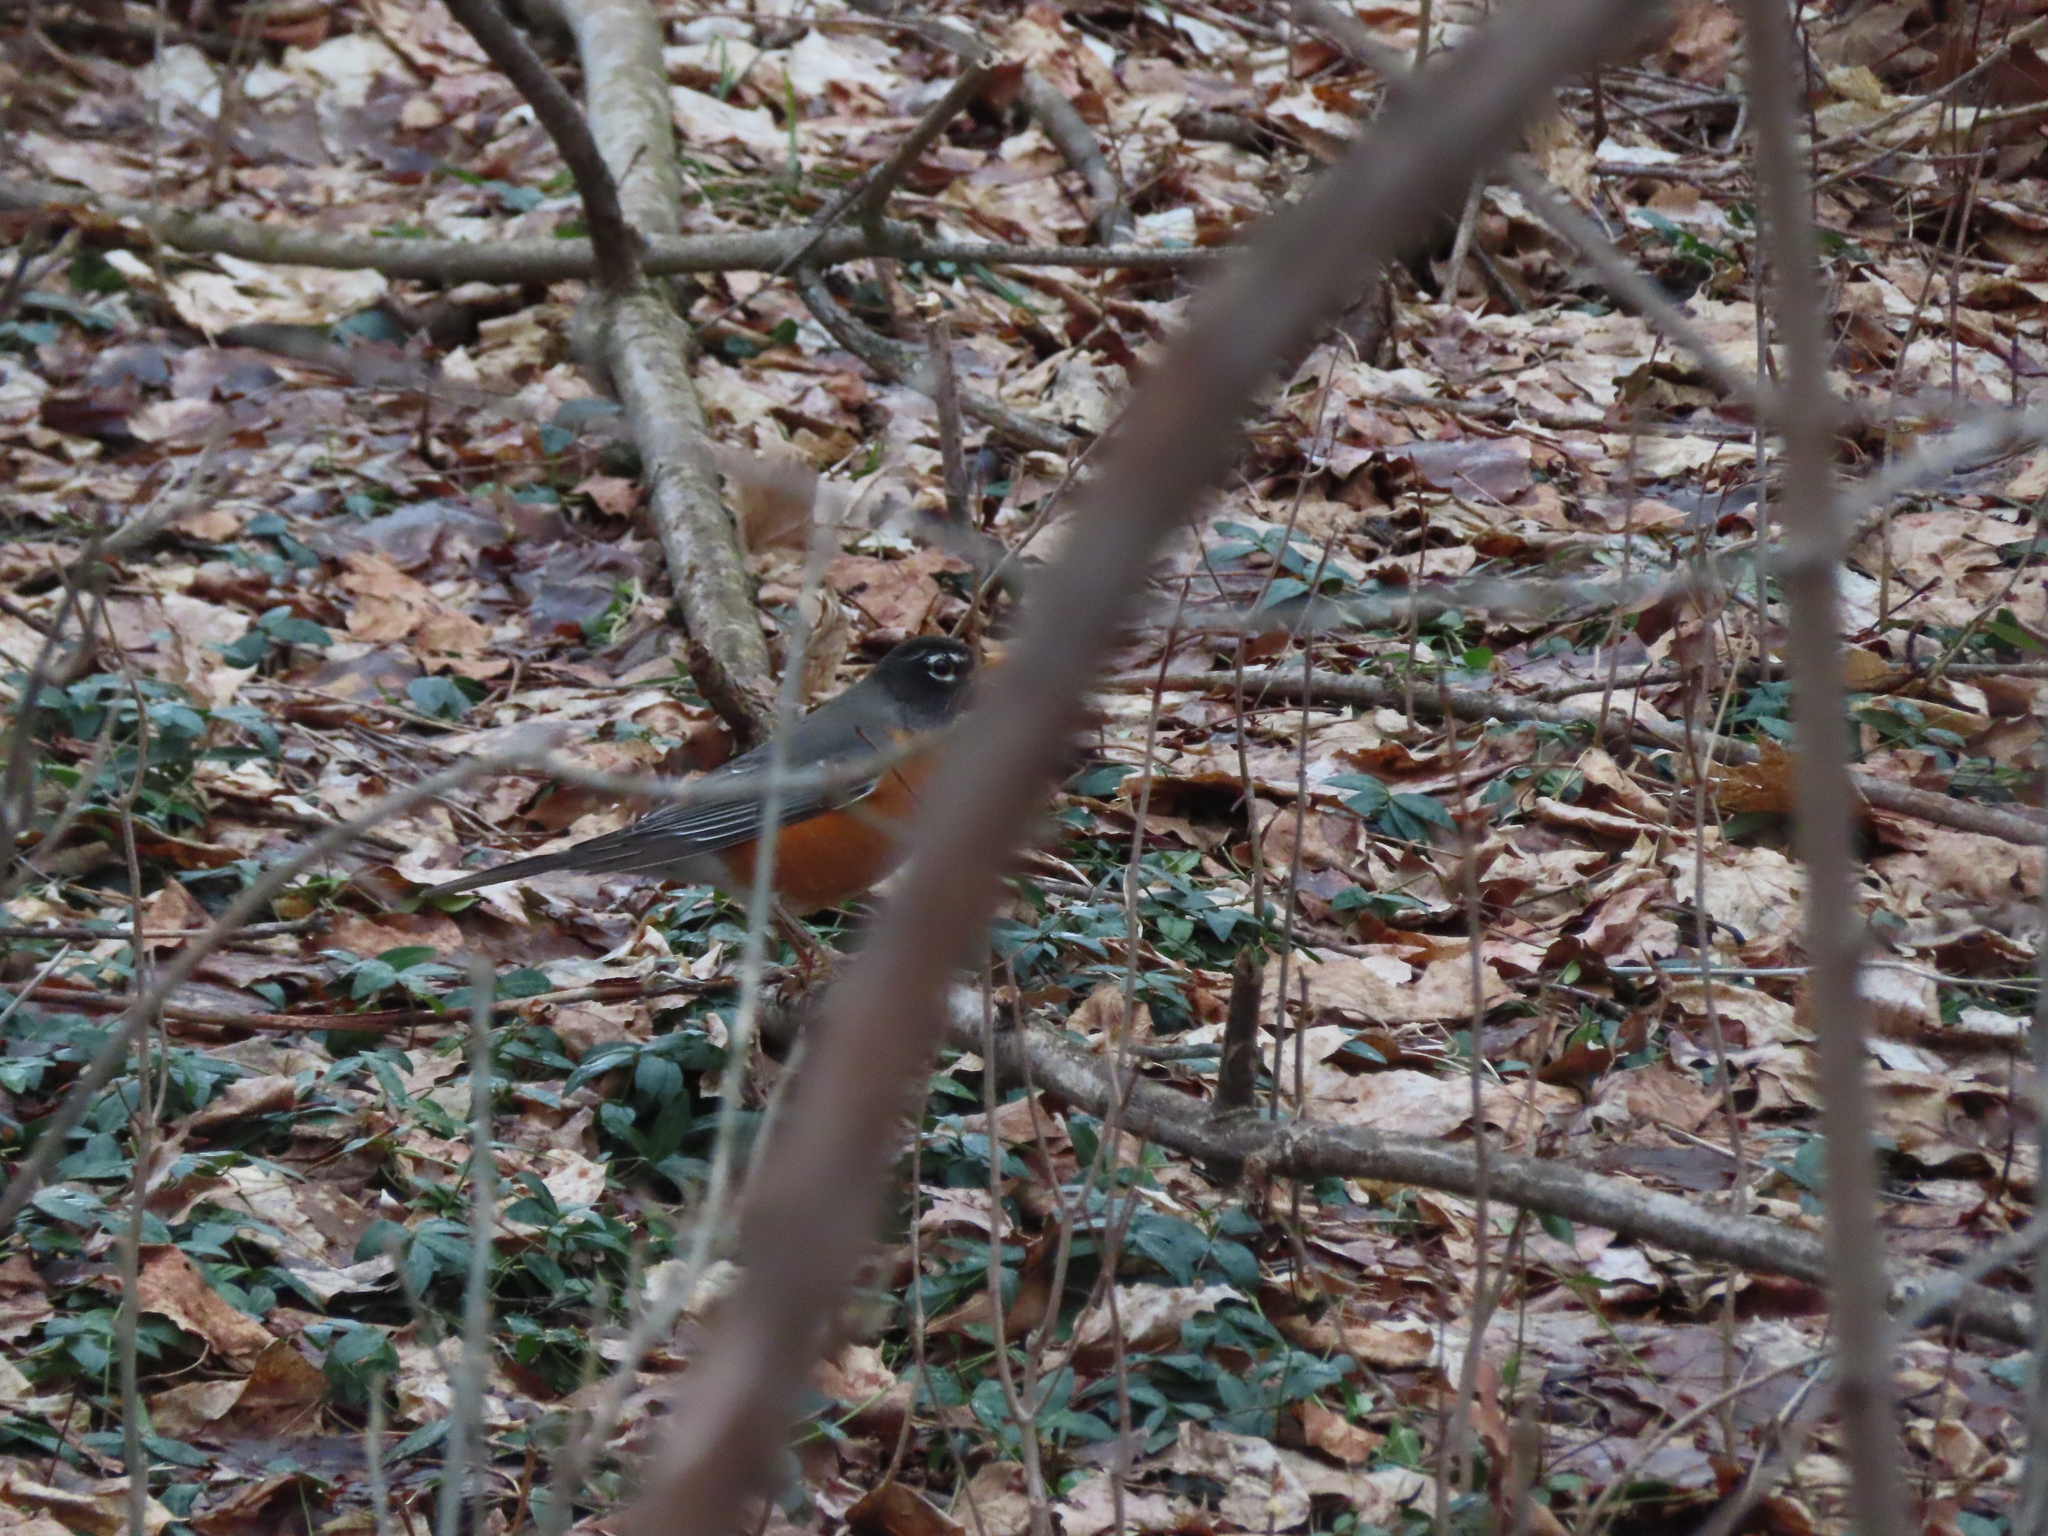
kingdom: Animalia
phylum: Chordata
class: Aves
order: Passeriformes
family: Turdidae
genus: Turdus
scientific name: Turdus migratorius
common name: American robin
